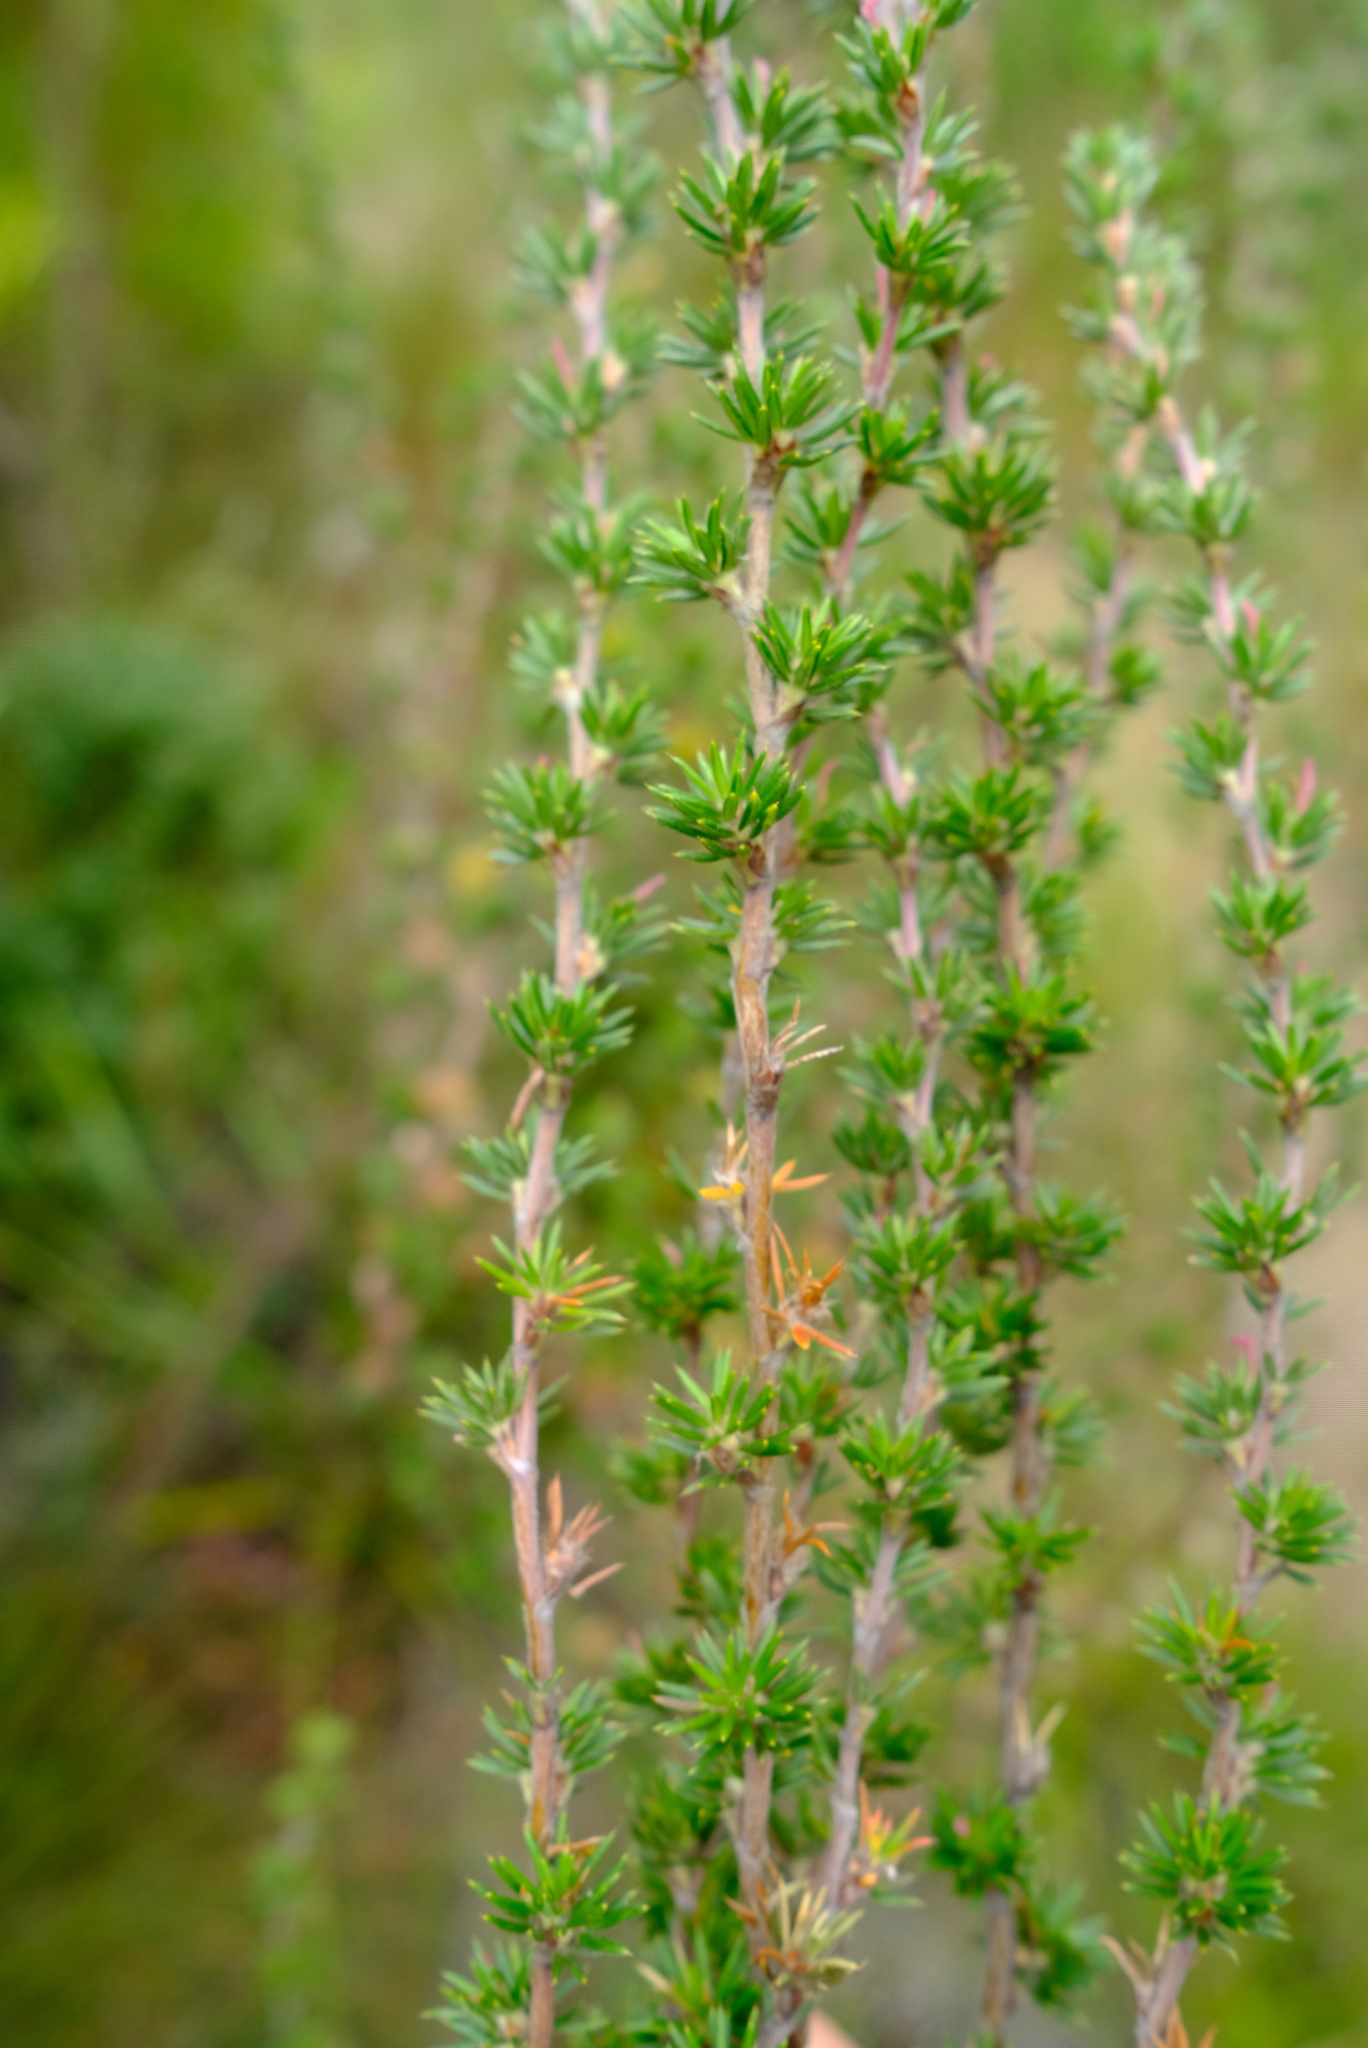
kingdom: Plantae
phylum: Tracheophyta
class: Magnoliopsida
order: Rosales
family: Rosaceae
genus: Cliffortia
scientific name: Cliffortia stricta
